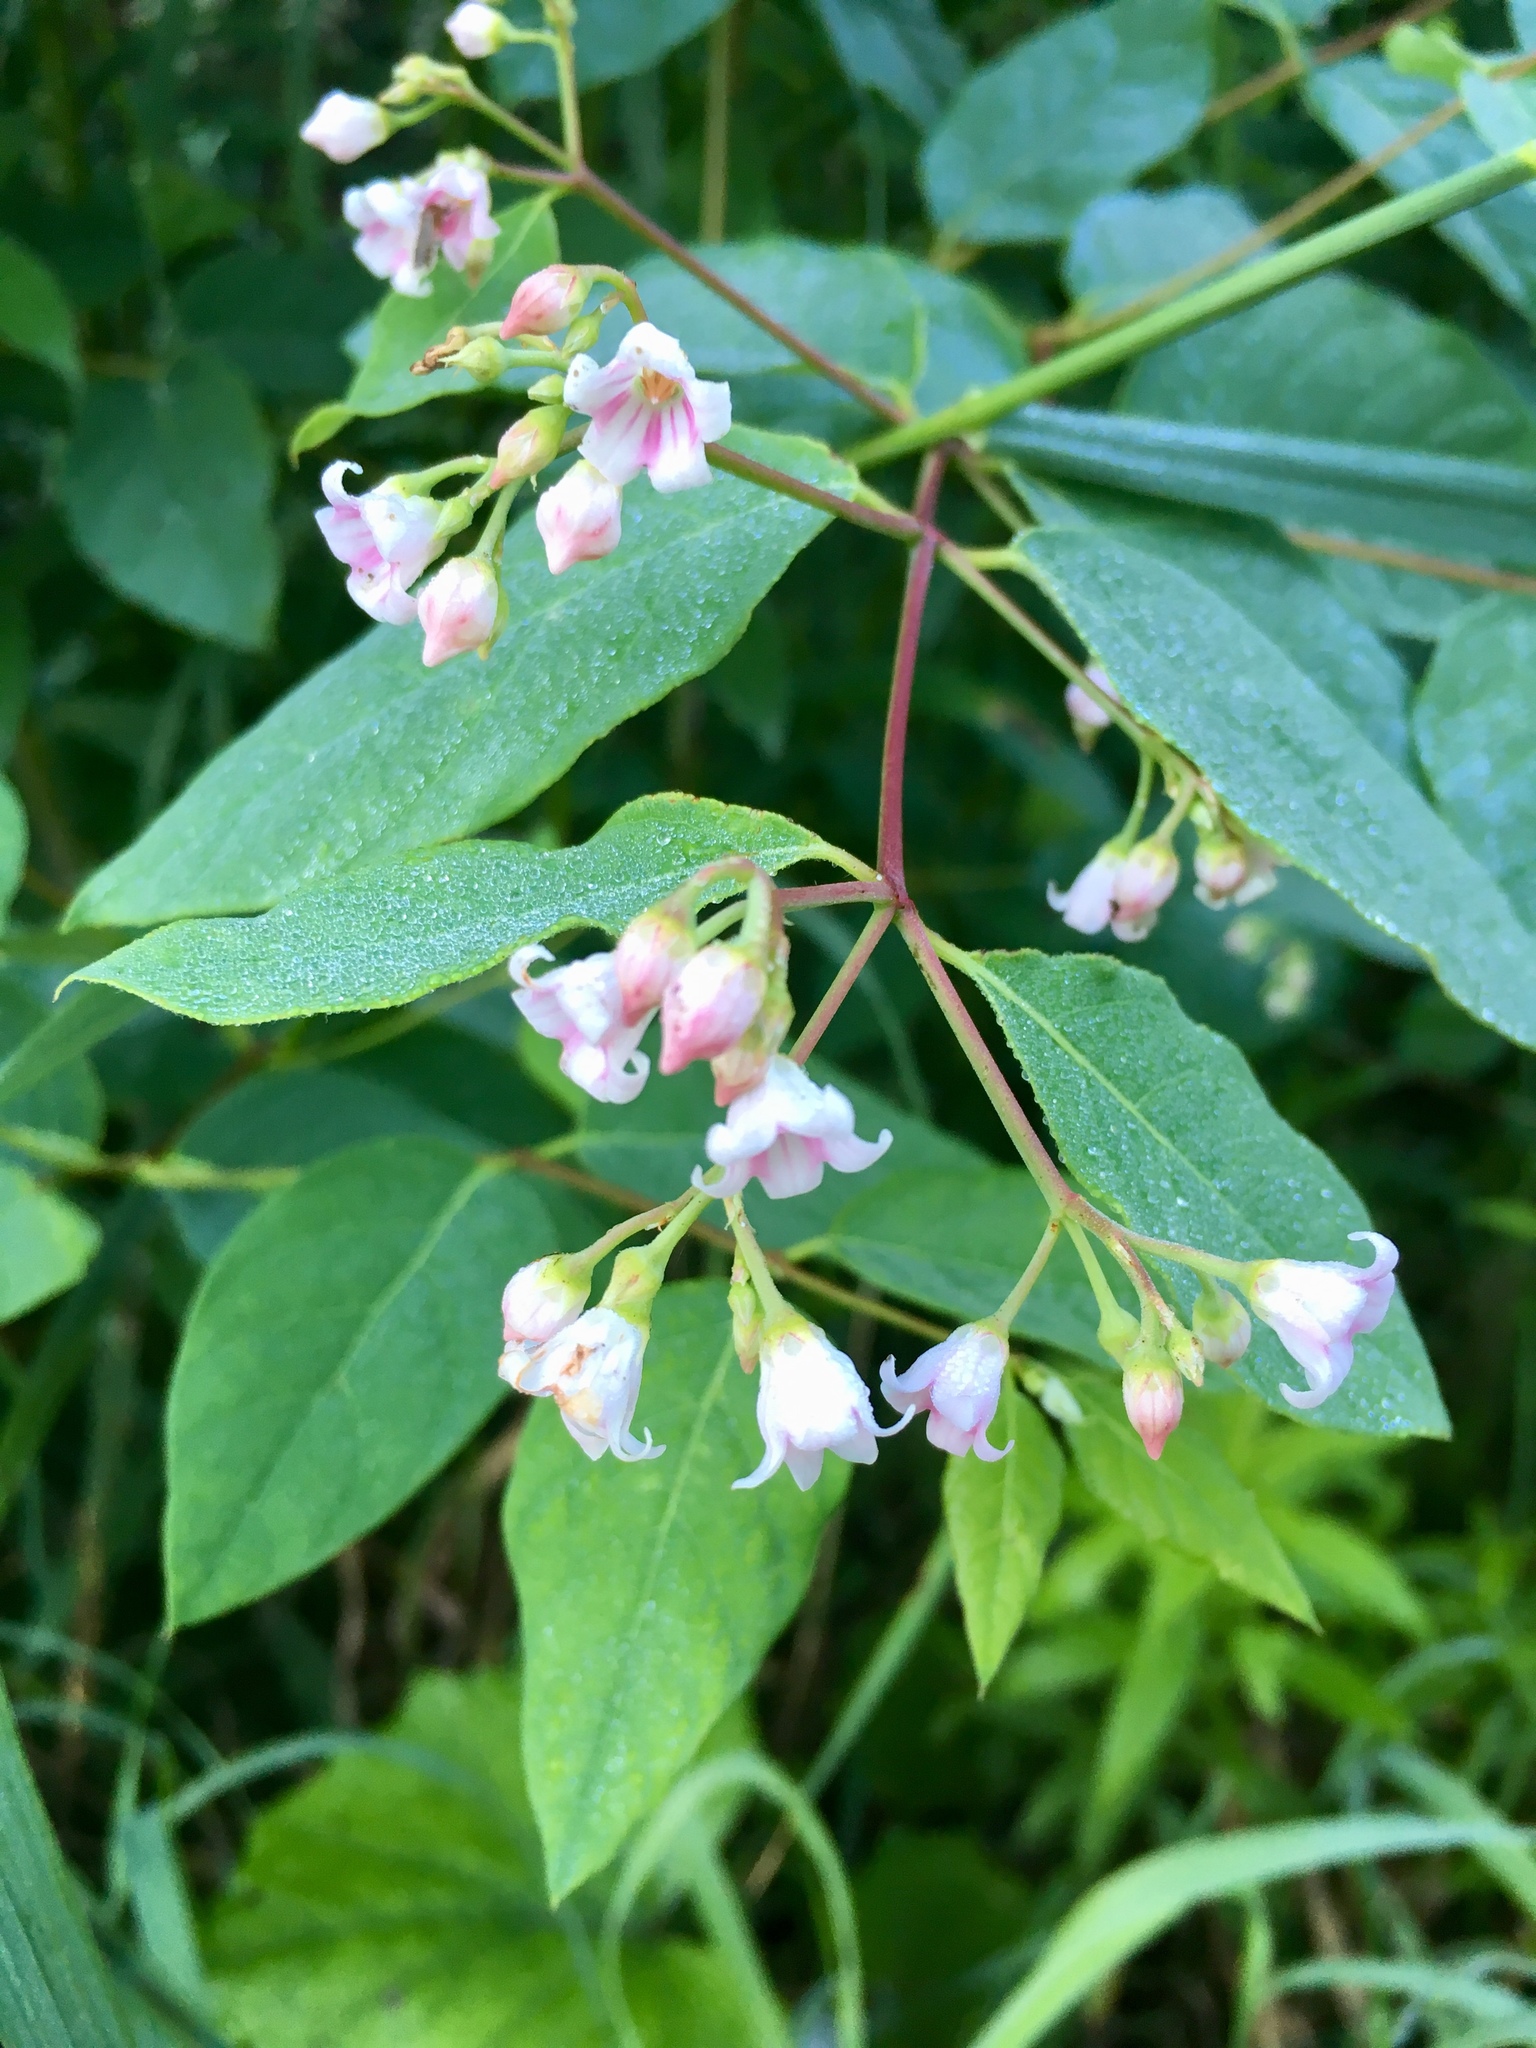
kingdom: Plantae
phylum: Tracheophyta
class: Magnoliopsida
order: Gentianales
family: Apocynaceae
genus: Apocynum
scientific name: Apocynum androsaemifolium
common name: Spreading dogbane
